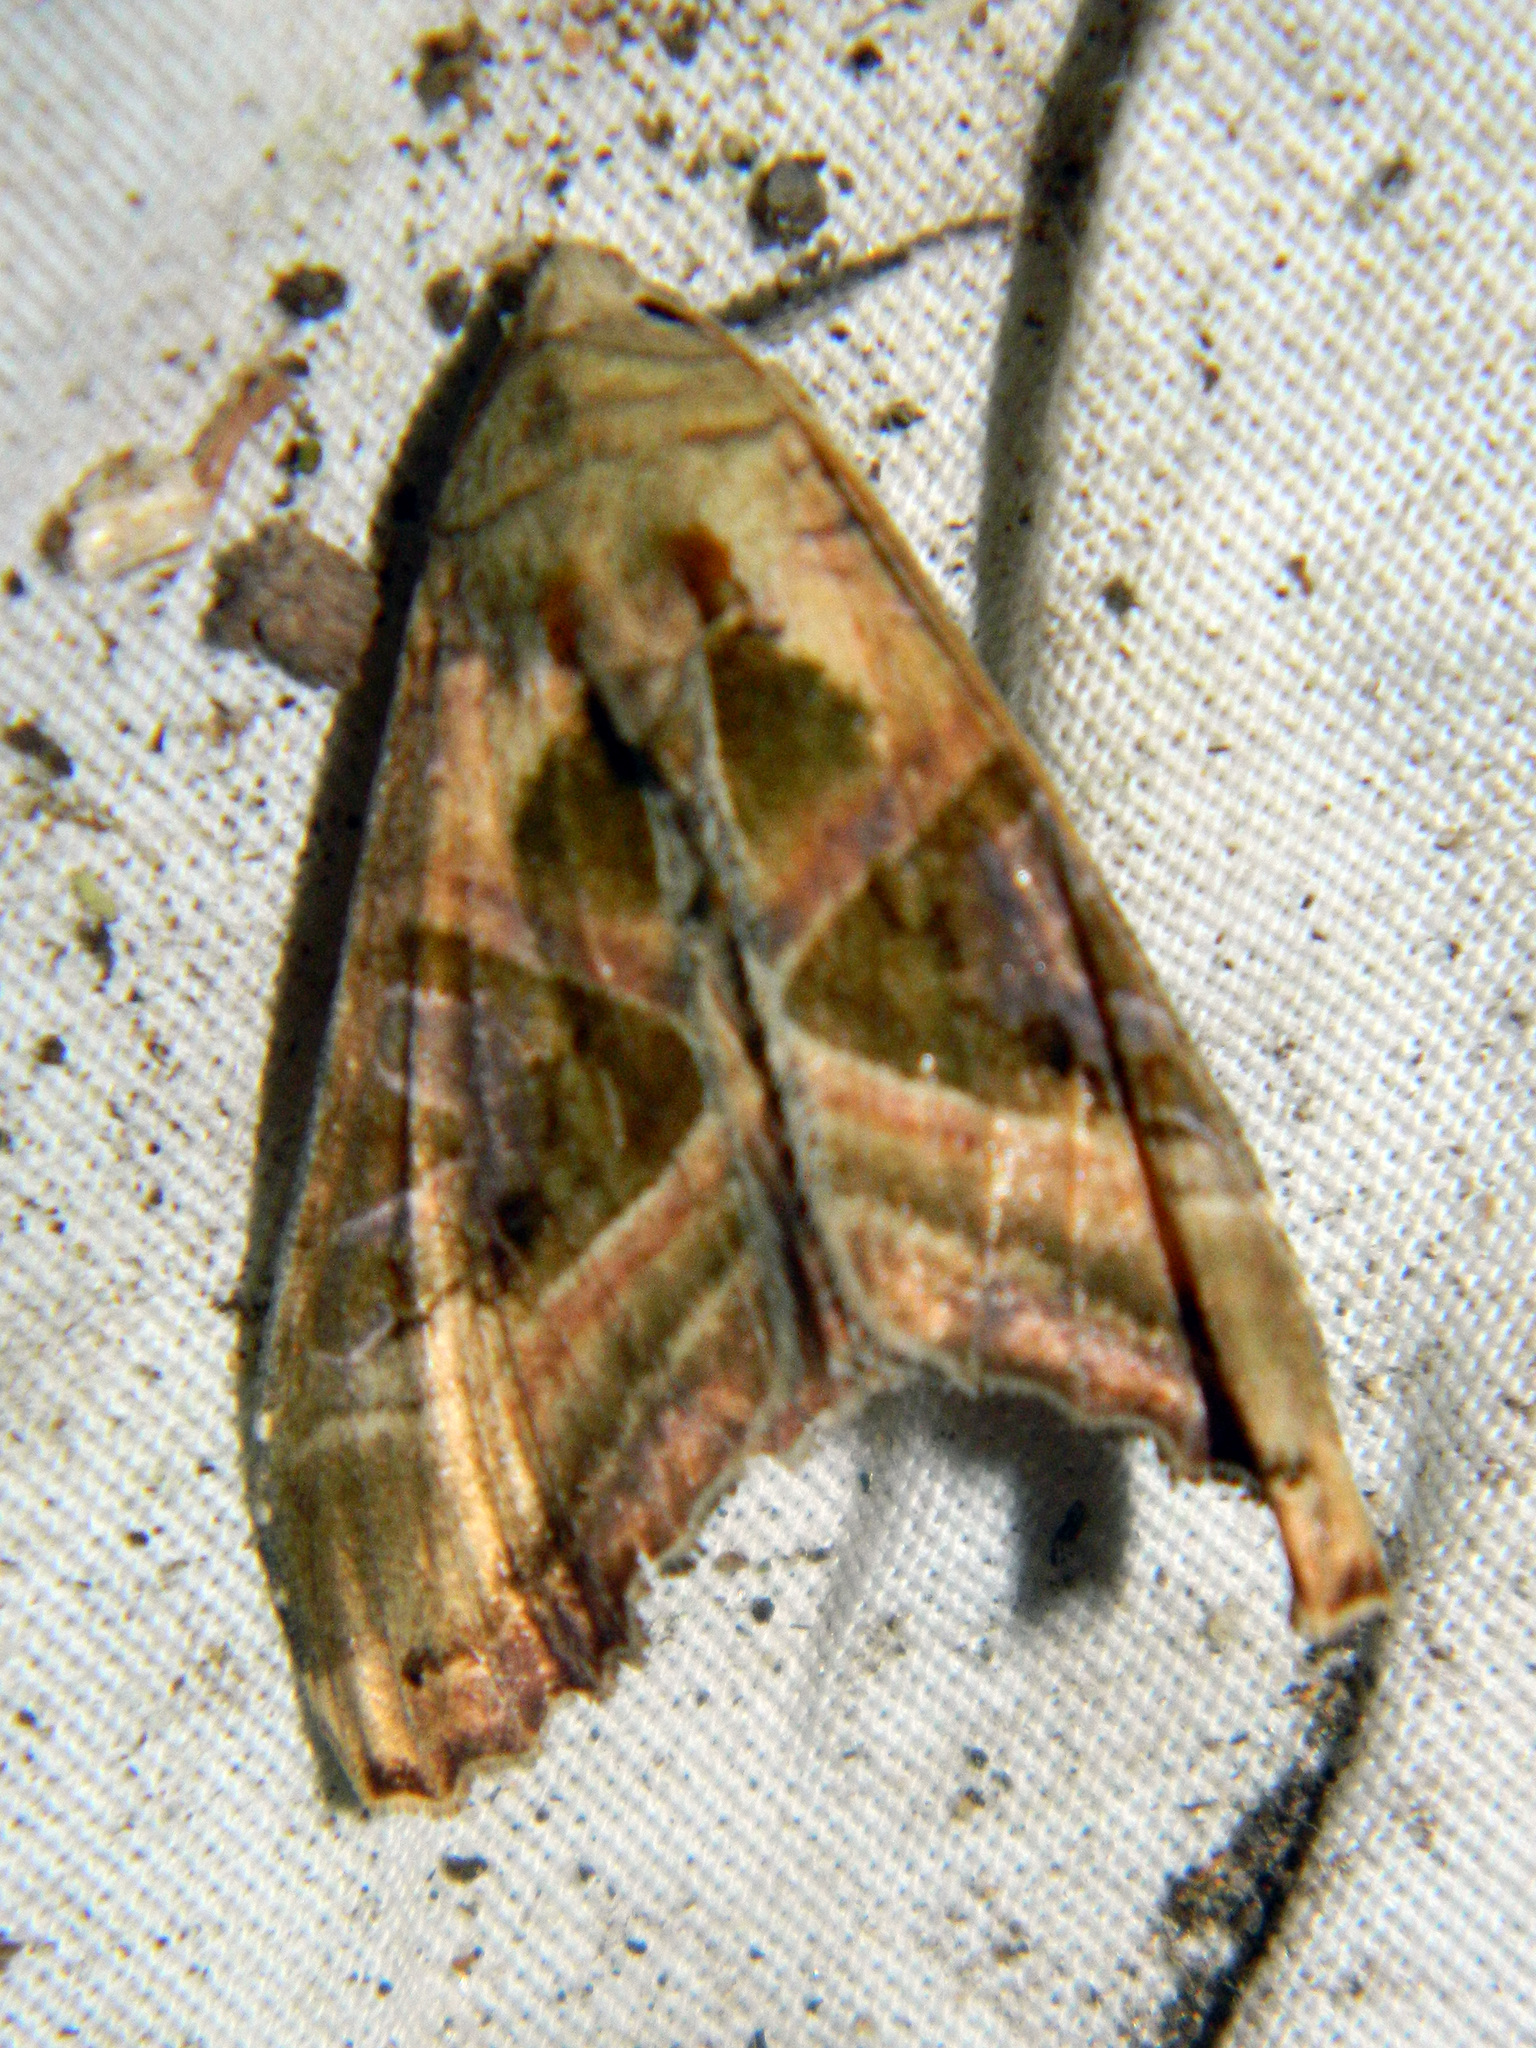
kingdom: Animalia
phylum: Arthropoda
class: Insecta
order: Lepidoptera
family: Noctuidae
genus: Phlogophora
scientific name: Phlogophora iris
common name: Olive angle shades
